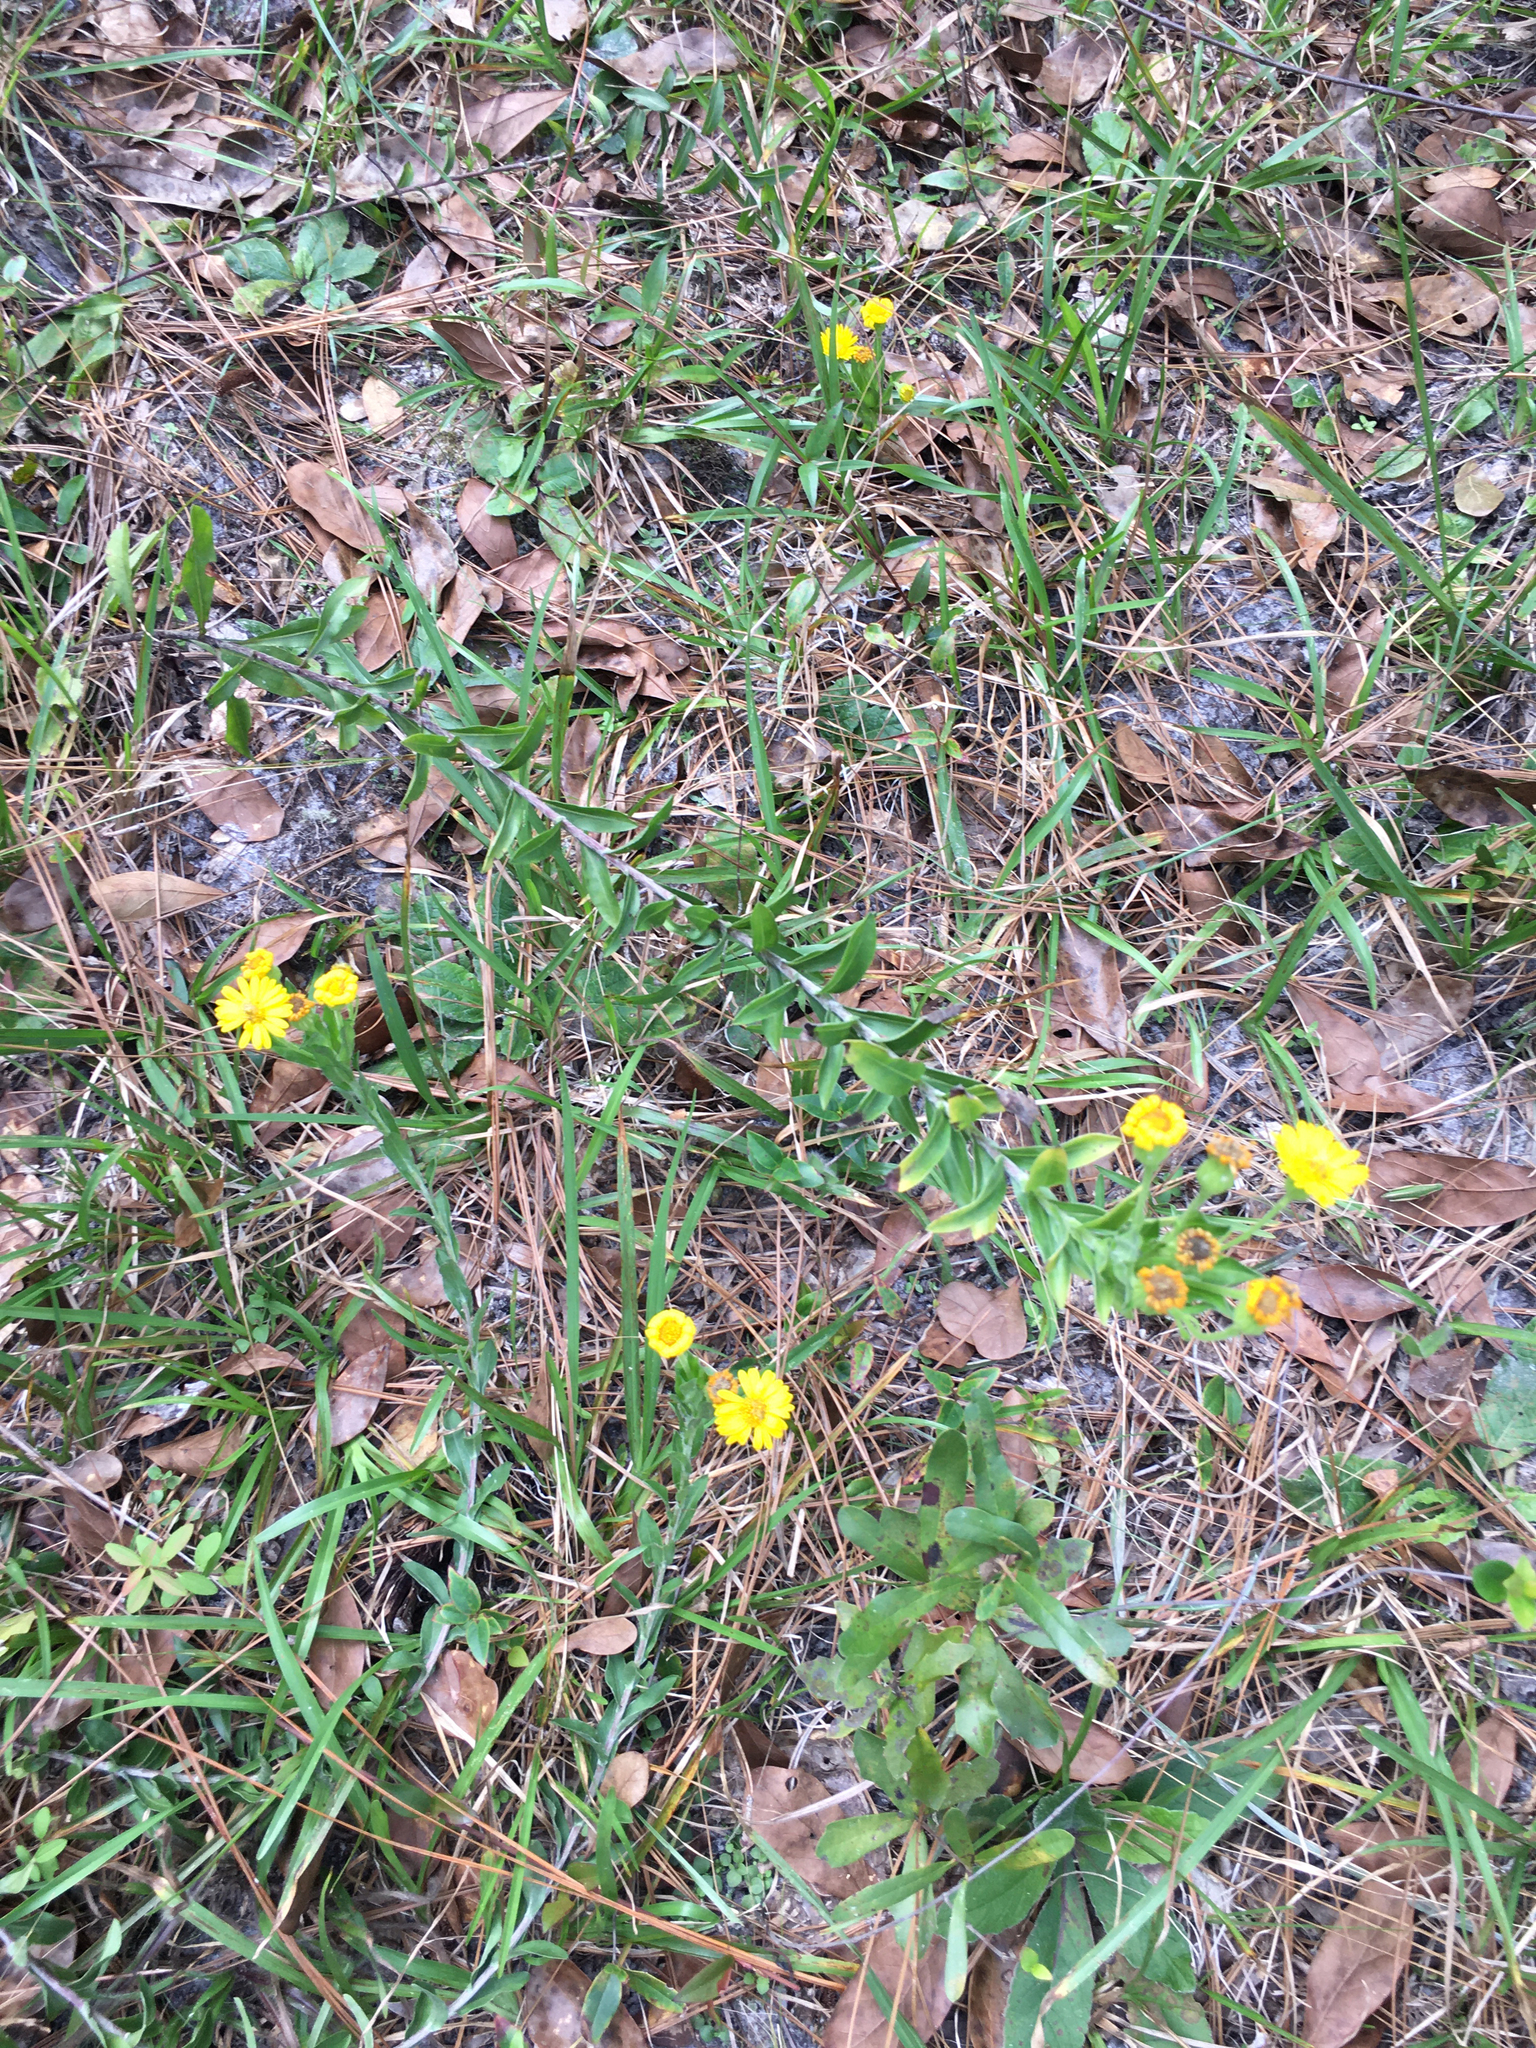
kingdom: Plantae
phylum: Tracheophyta
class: Magnoliopsida
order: Asterales
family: Asteraceae
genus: Chrysopsis
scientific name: Chrysopsis mariana
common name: Maryland golden-aster
